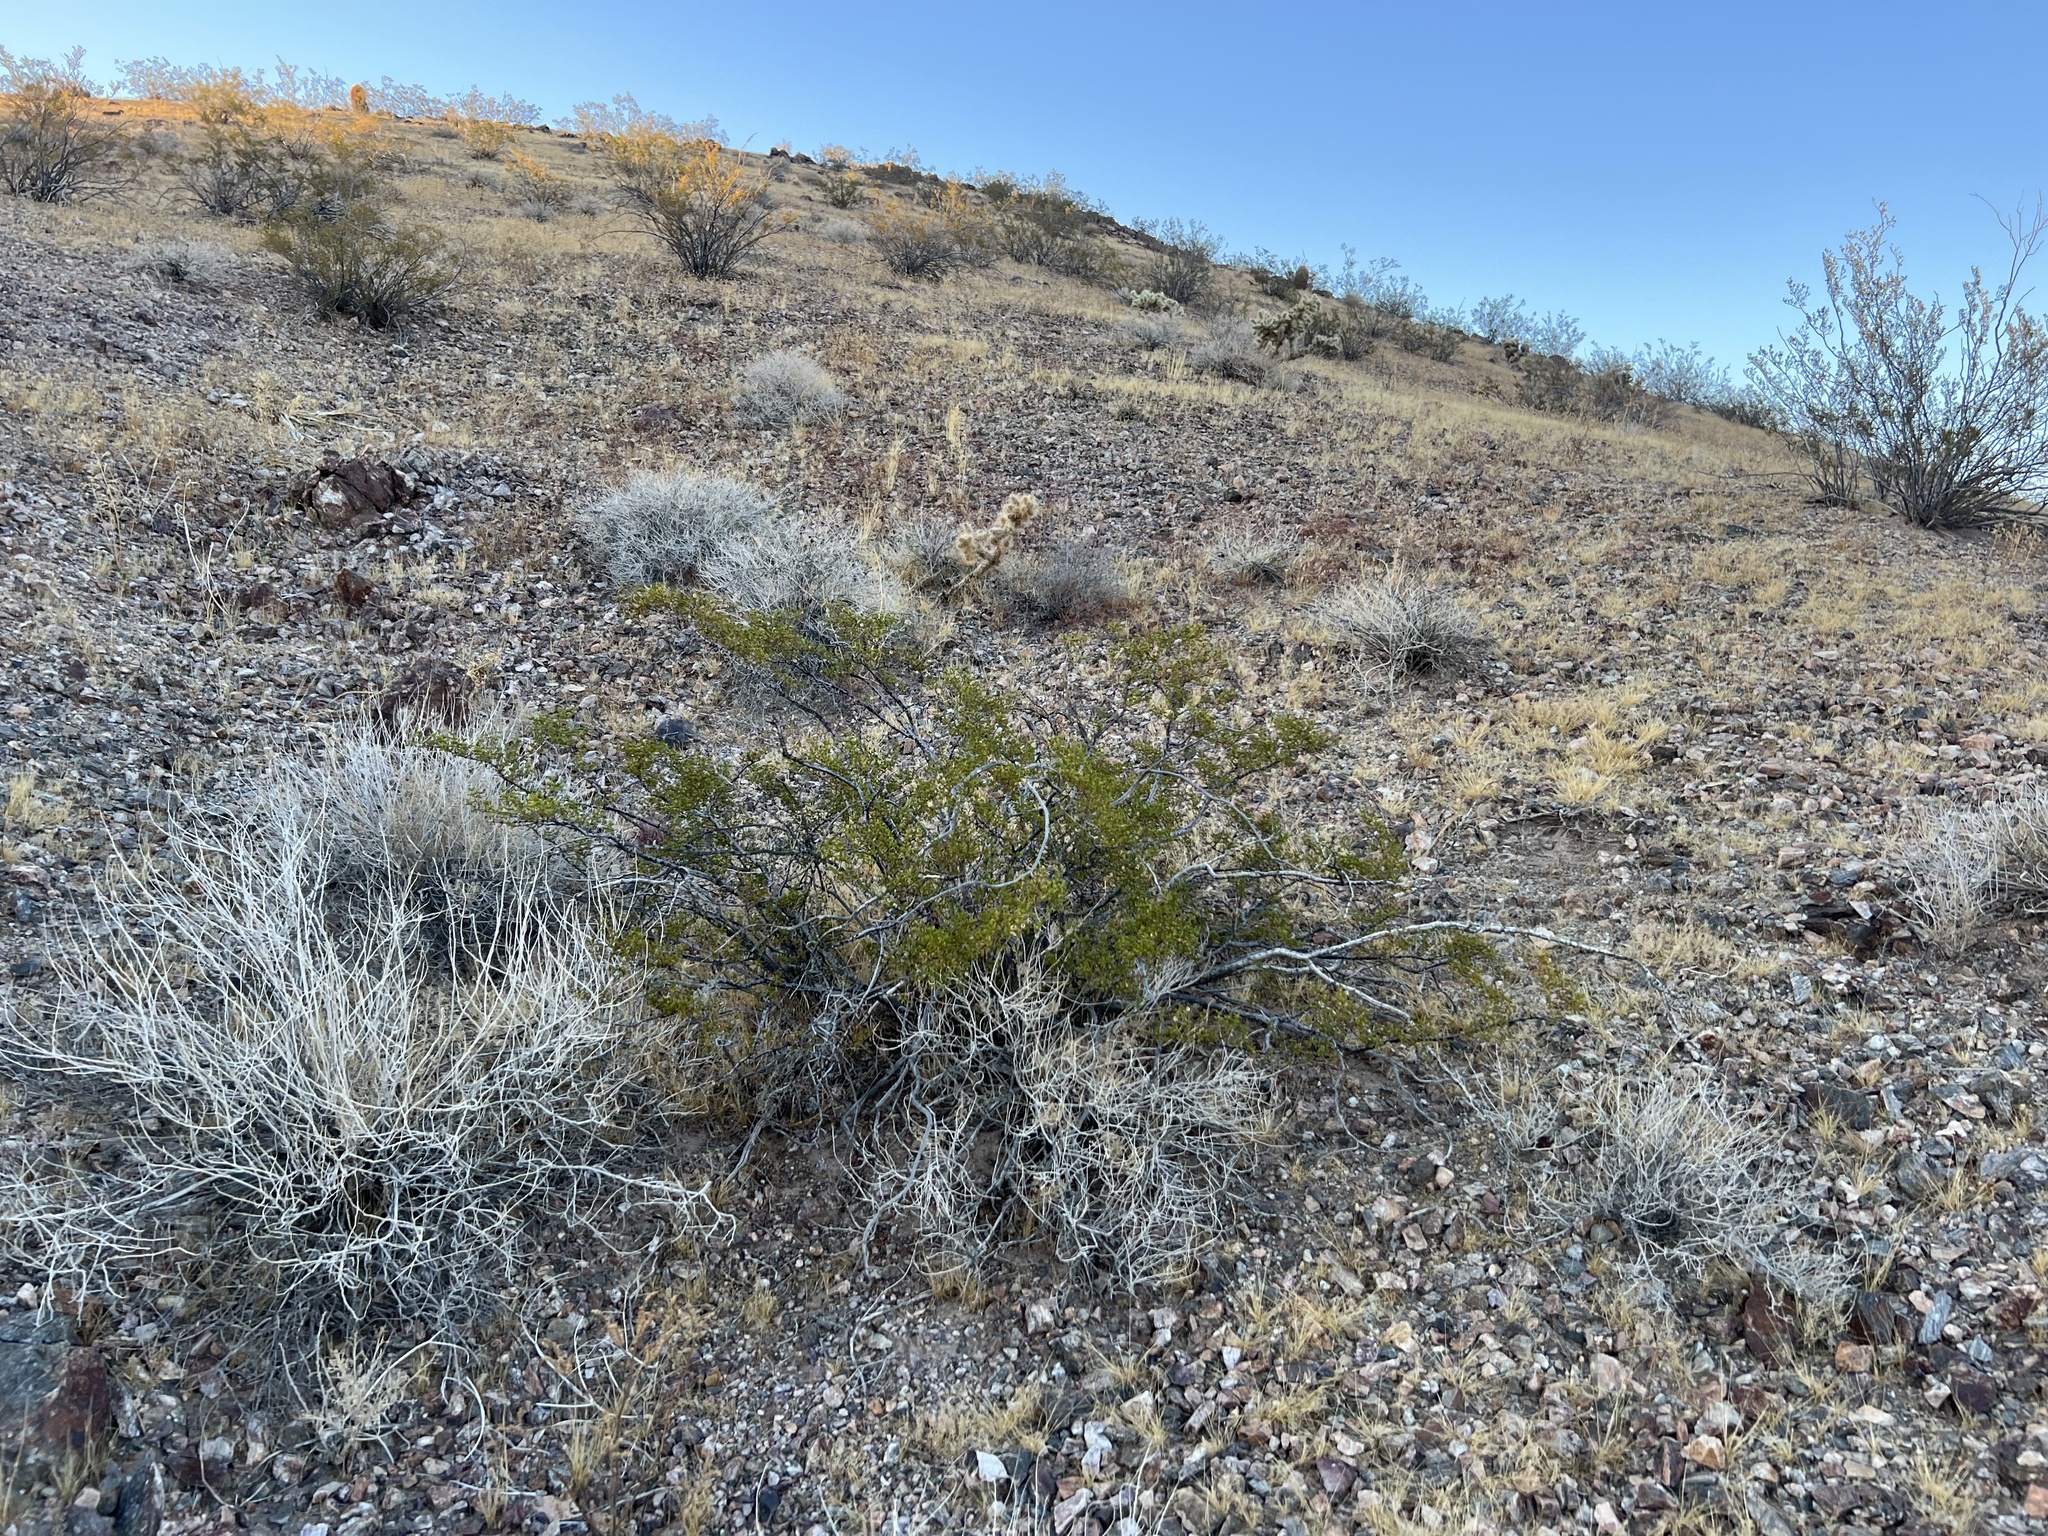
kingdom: Plantae
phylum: Tracheophyta
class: Magnoliopsida
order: Zygophyllales
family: Zygophyllaceae
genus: Larrea
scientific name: Larrea tridentata
